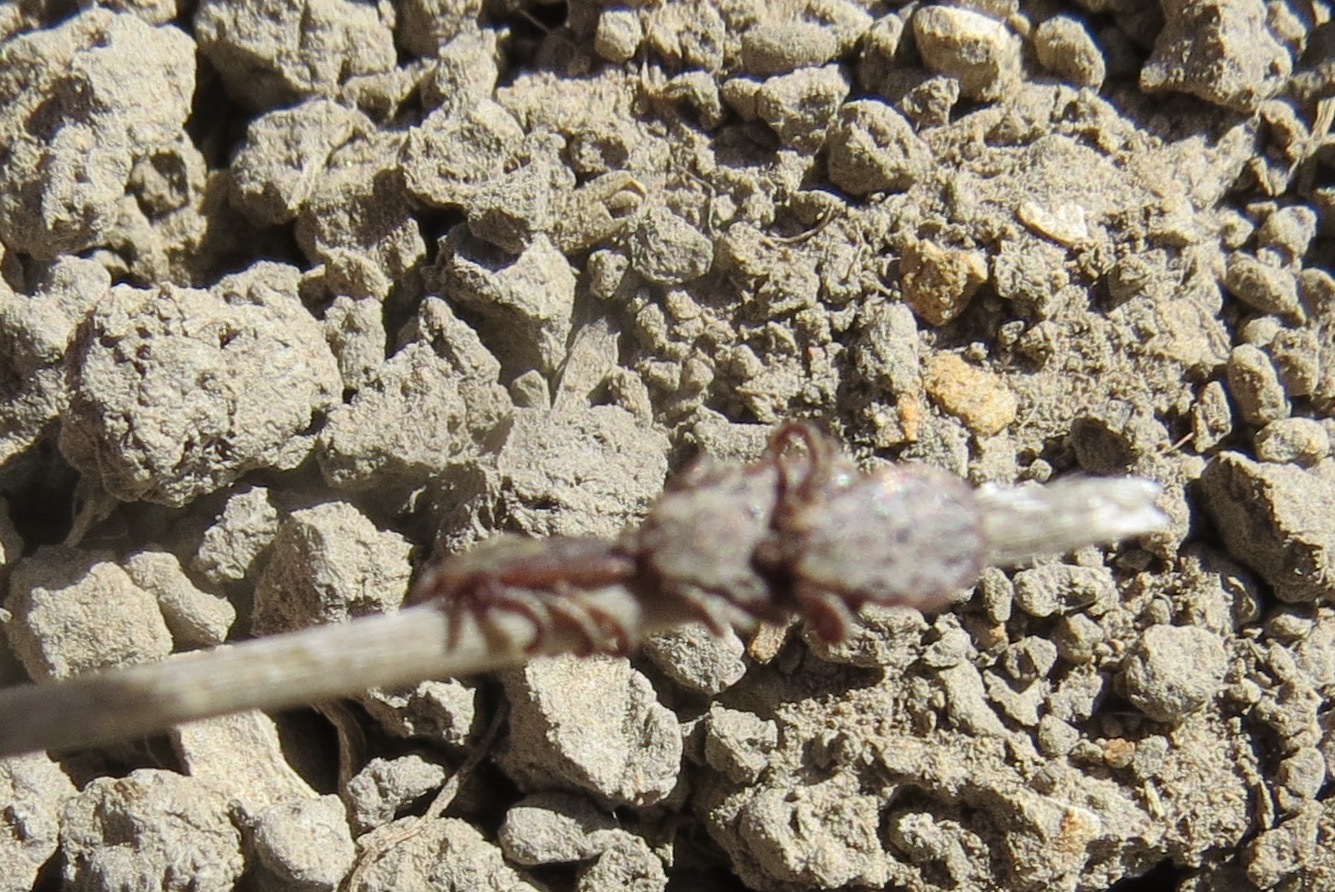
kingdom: Animalia
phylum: Arthropoda
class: Arachnida
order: Ixodida
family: Ixodidae
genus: Dermacentor
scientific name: Dermacentor occidentalis
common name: Net tick
